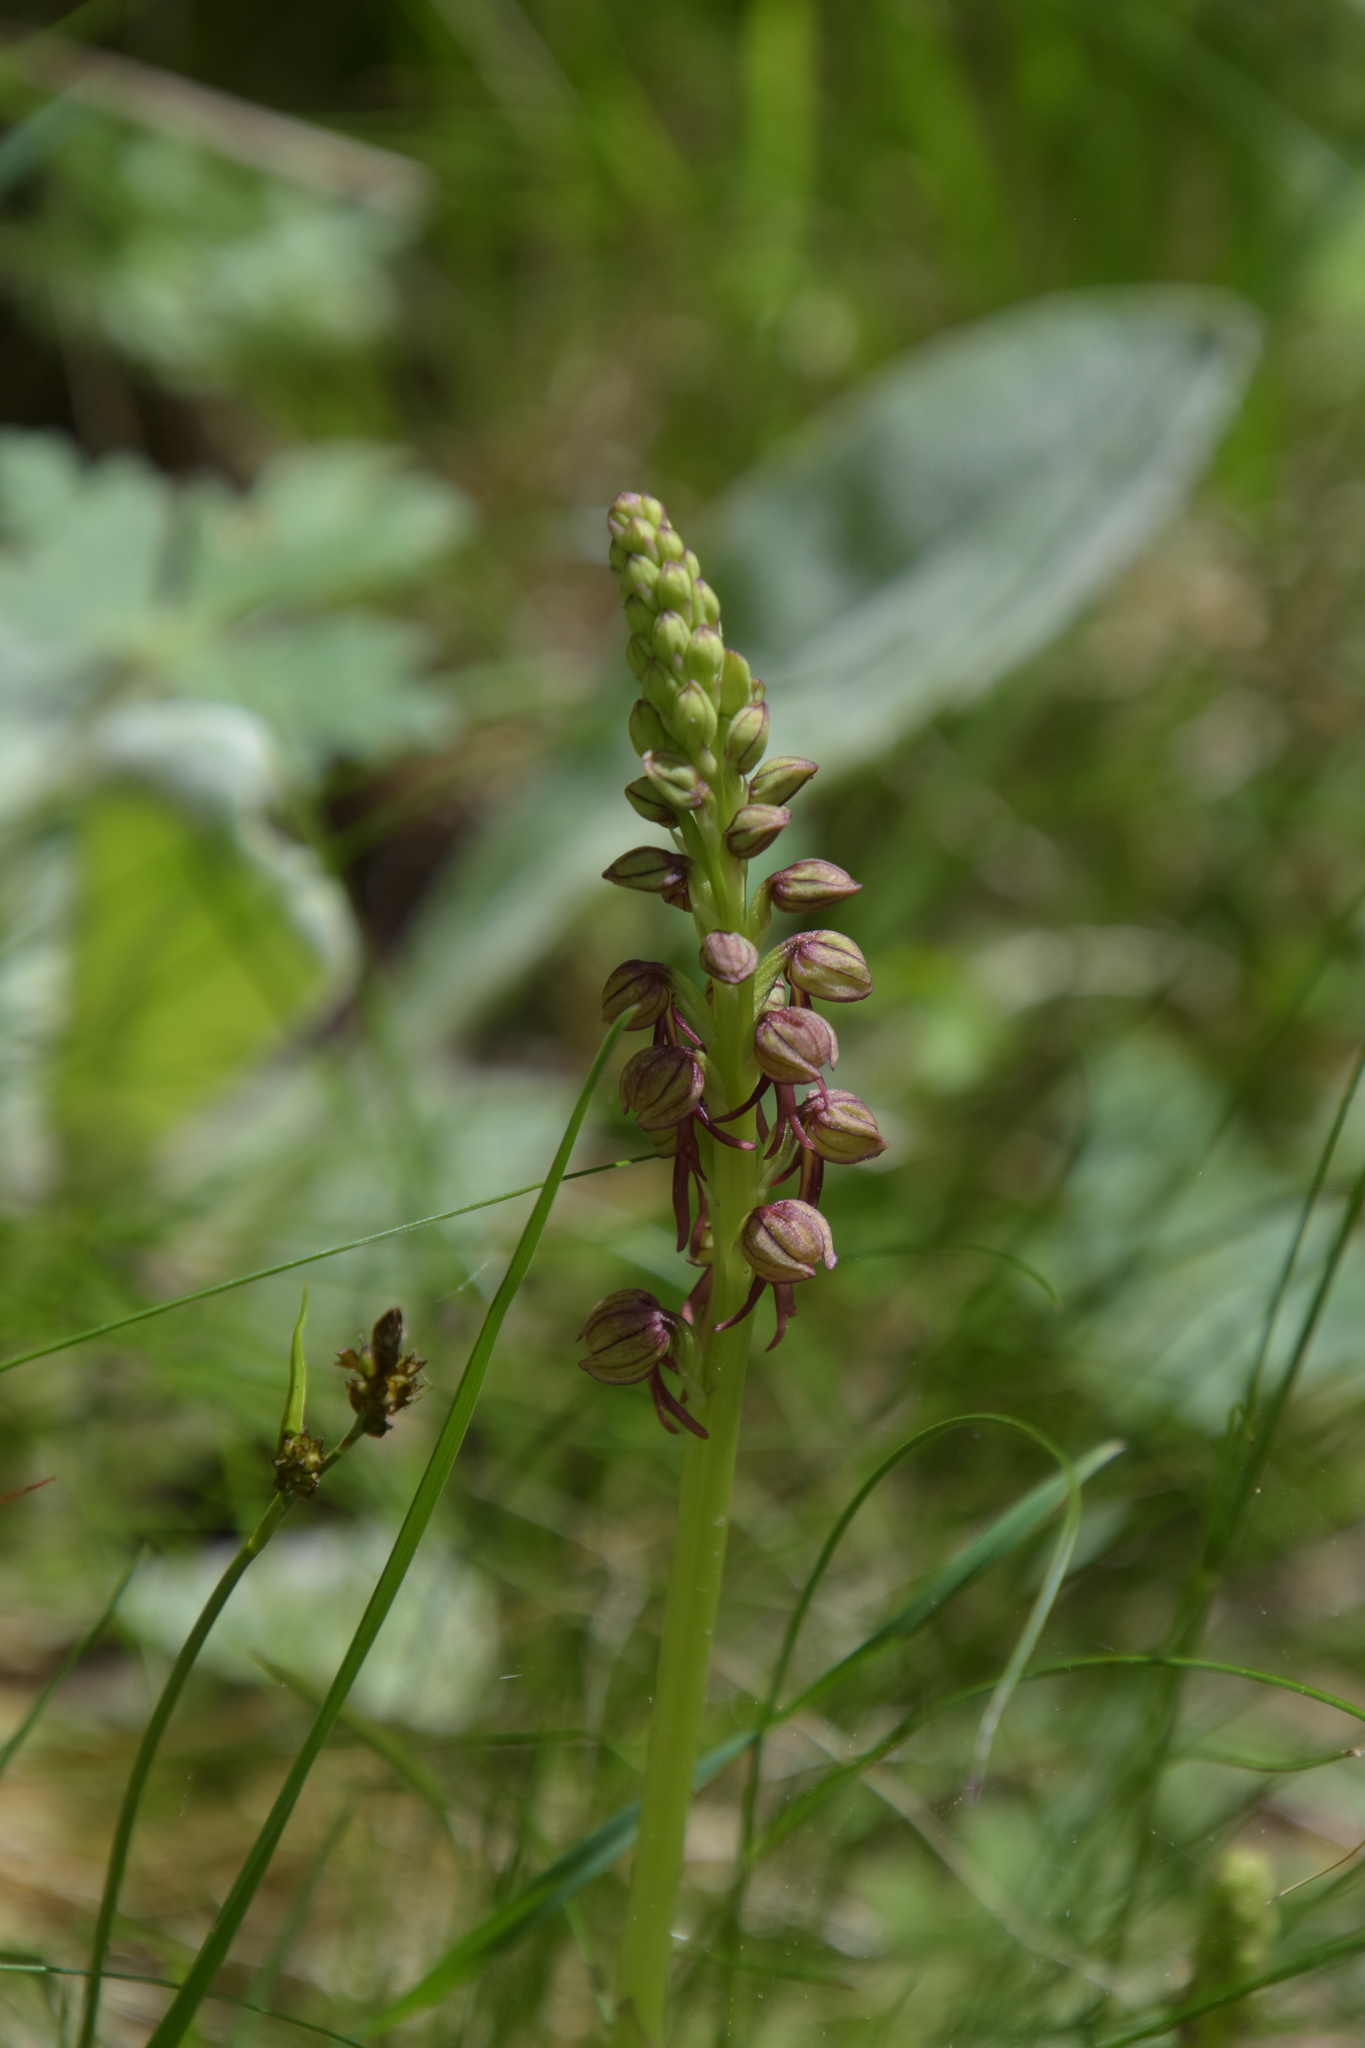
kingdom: Plantae
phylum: Tracheophyta
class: Liliopsida
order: Asparagales
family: Orchidaceae
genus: Orchis
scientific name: Orchis anthropophora
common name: Man orchid
